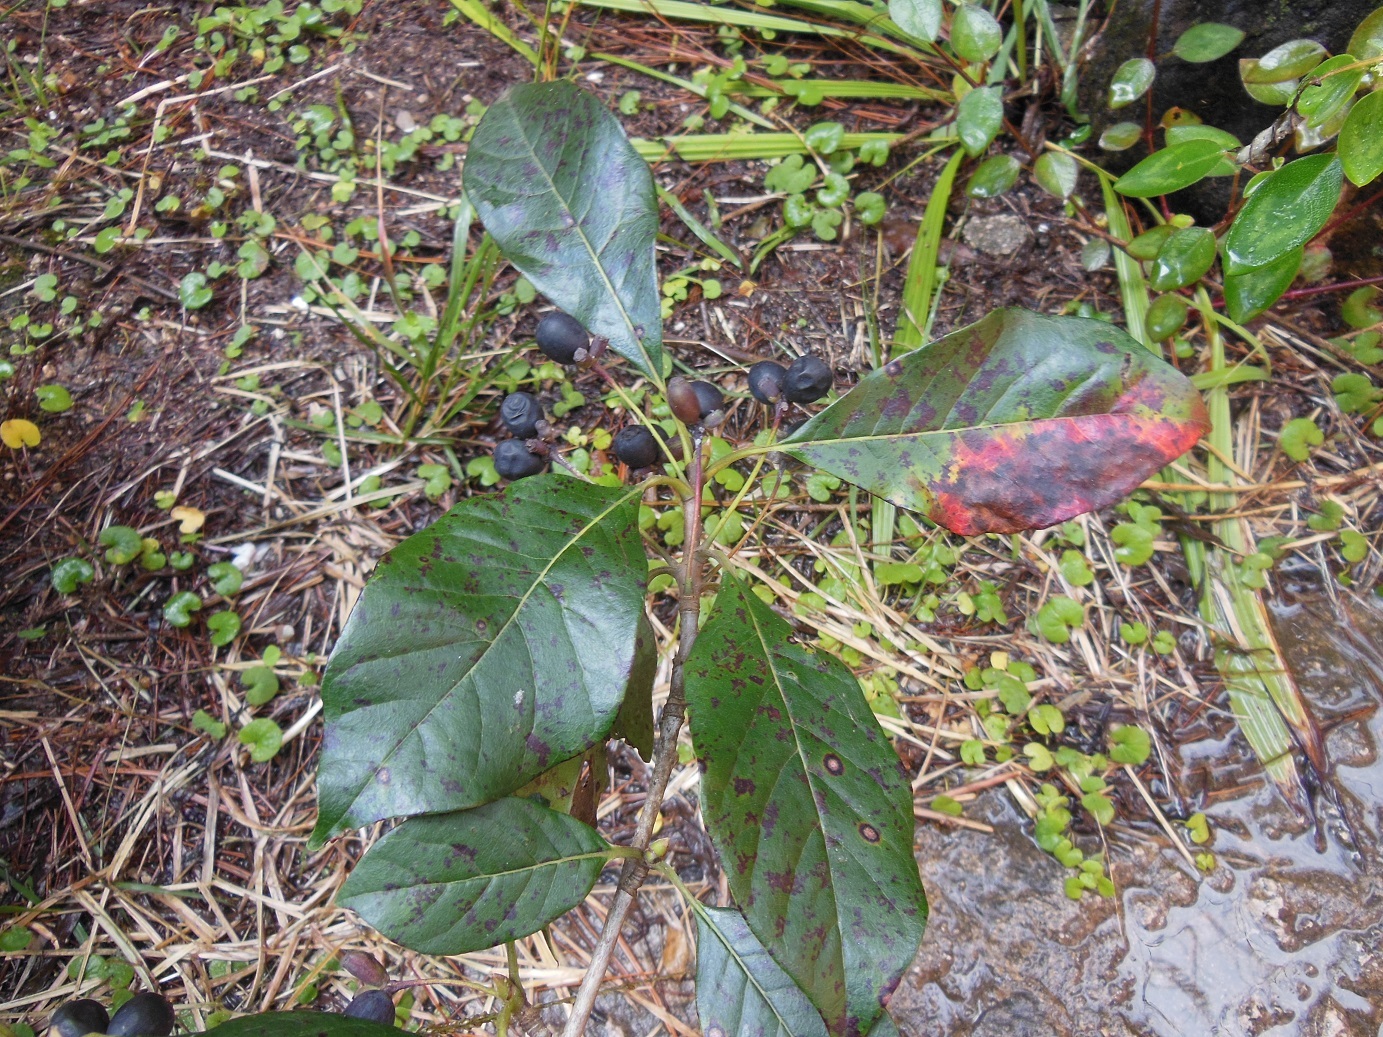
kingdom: Plantae
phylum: Tracheophyta
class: Magnoliopsida
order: Cornales
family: Nyssaceae
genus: Nyssa
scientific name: Nyssa sylvatica
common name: Black tupelo
